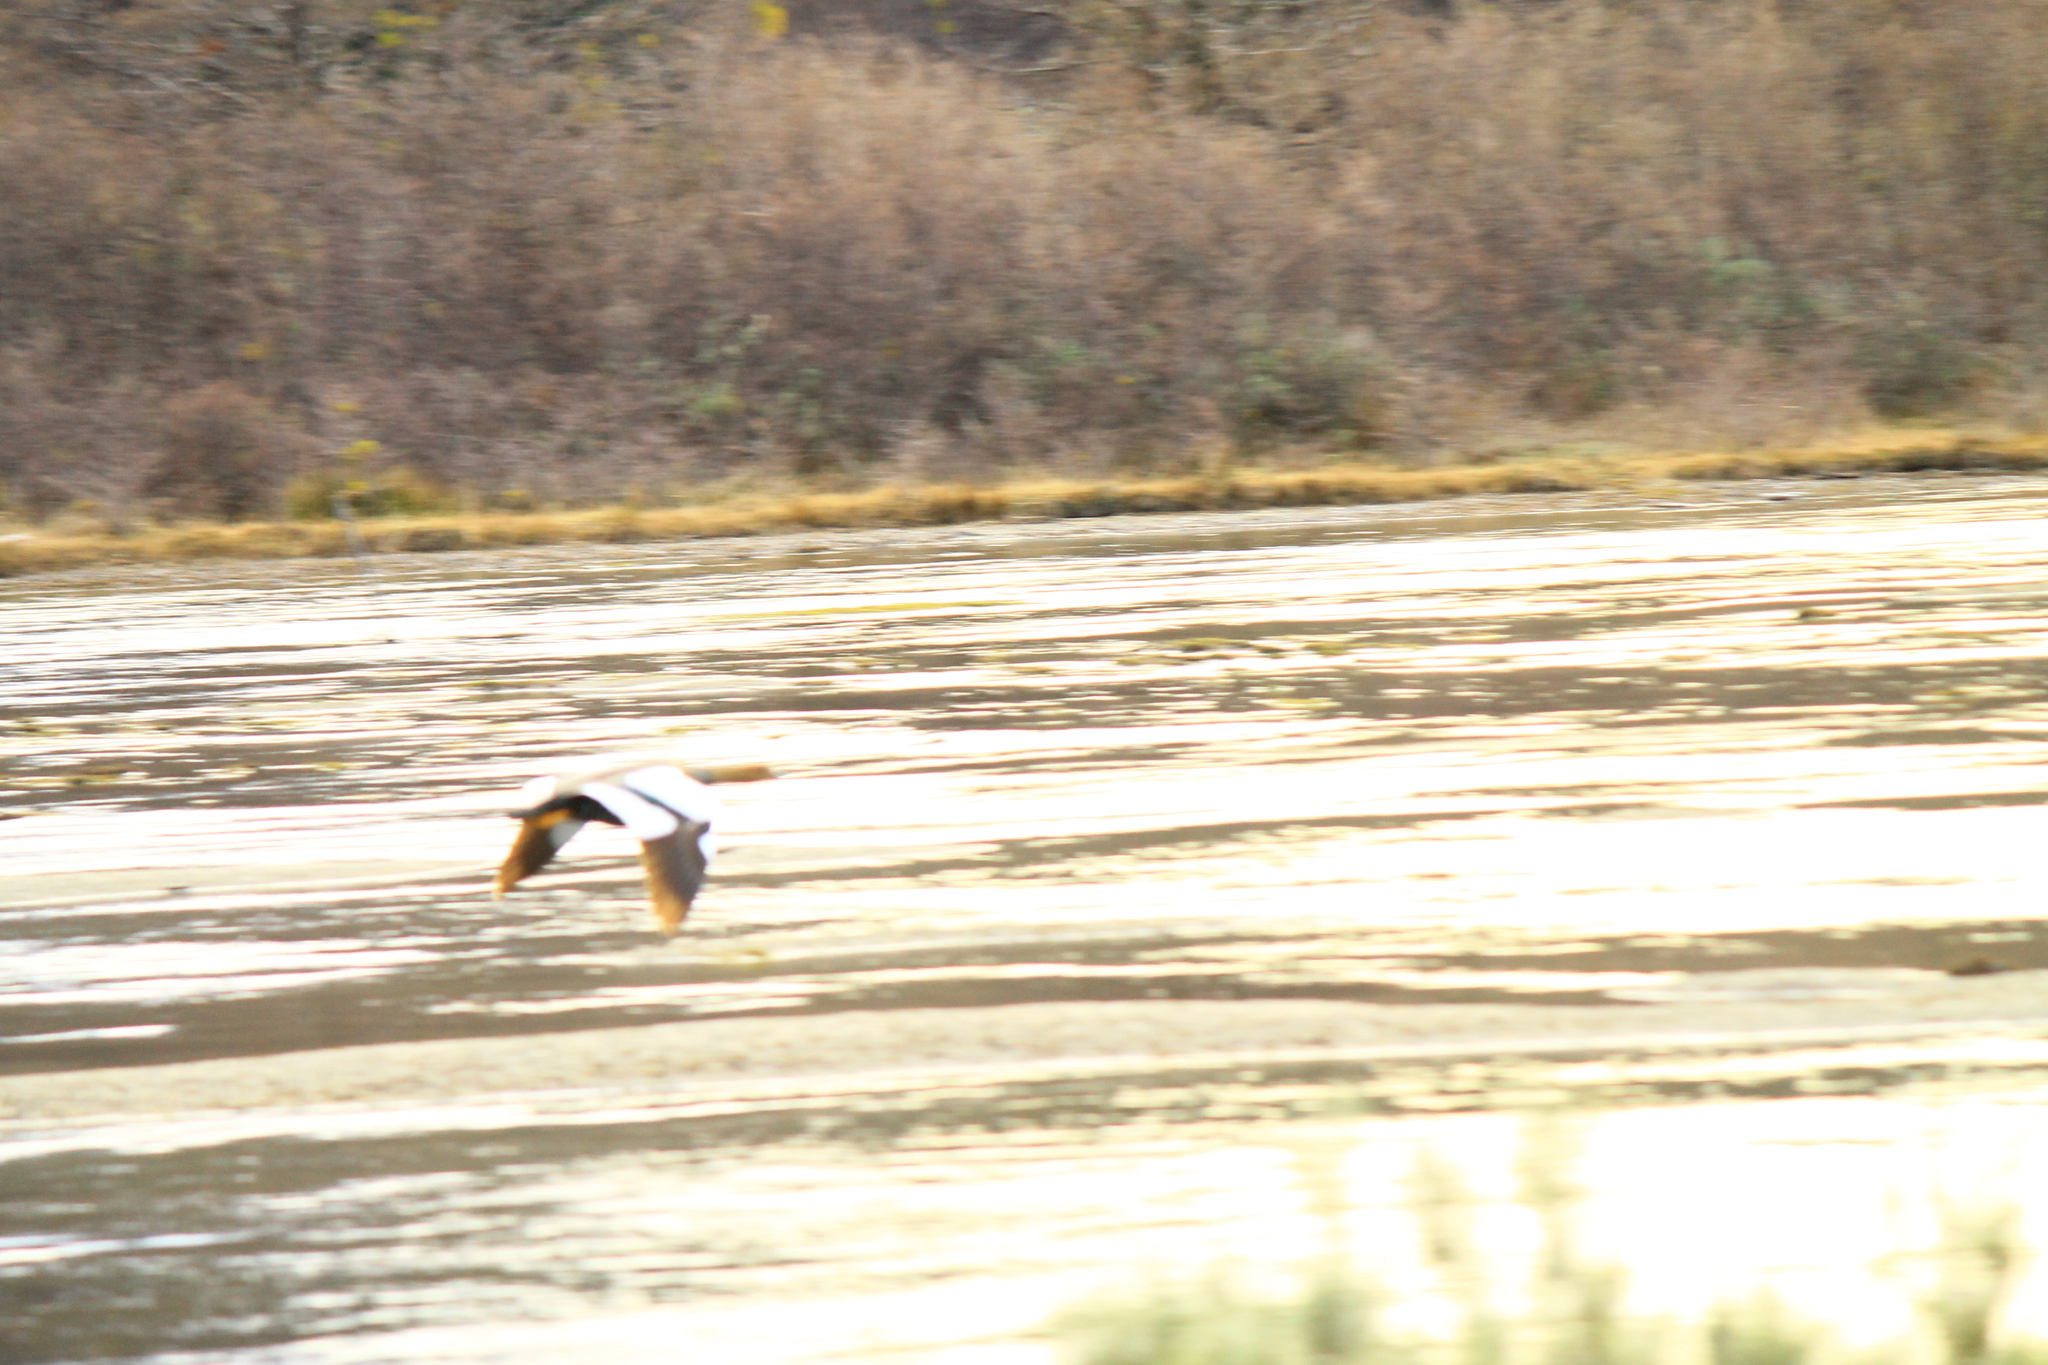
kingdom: Animalia
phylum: Chordata
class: Aves
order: Anseriformes
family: Anatidae
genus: Chloephaga
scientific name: Chloephaga picta
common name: Upland goose
